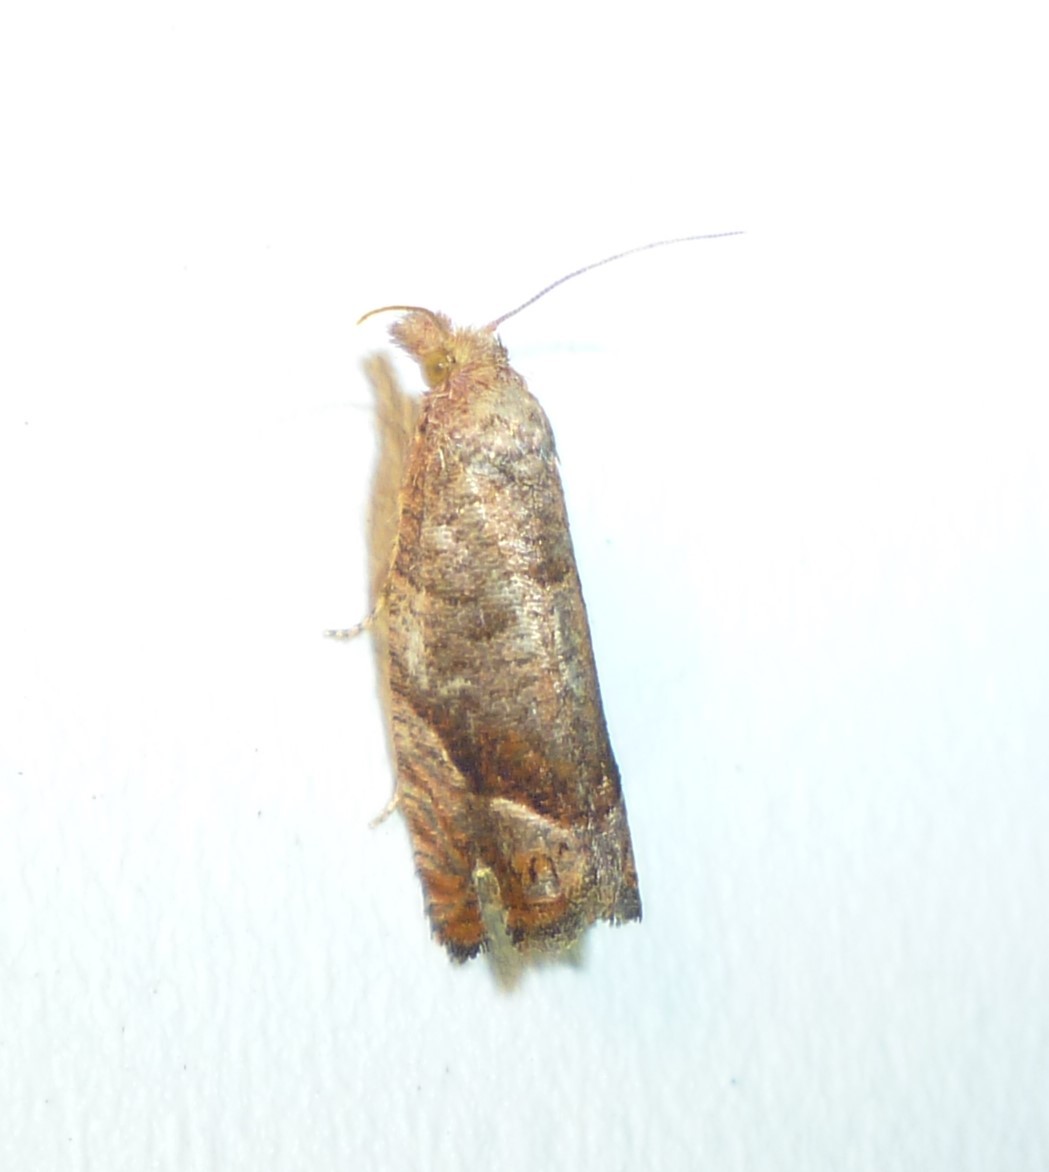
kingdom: Animalia
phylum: Arthropoda
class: Insecta
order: Lepidoptera
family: Tortricidae
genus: Pelochrista
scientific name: Pelochrista derelicta
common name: Derelict pelochrista moth
